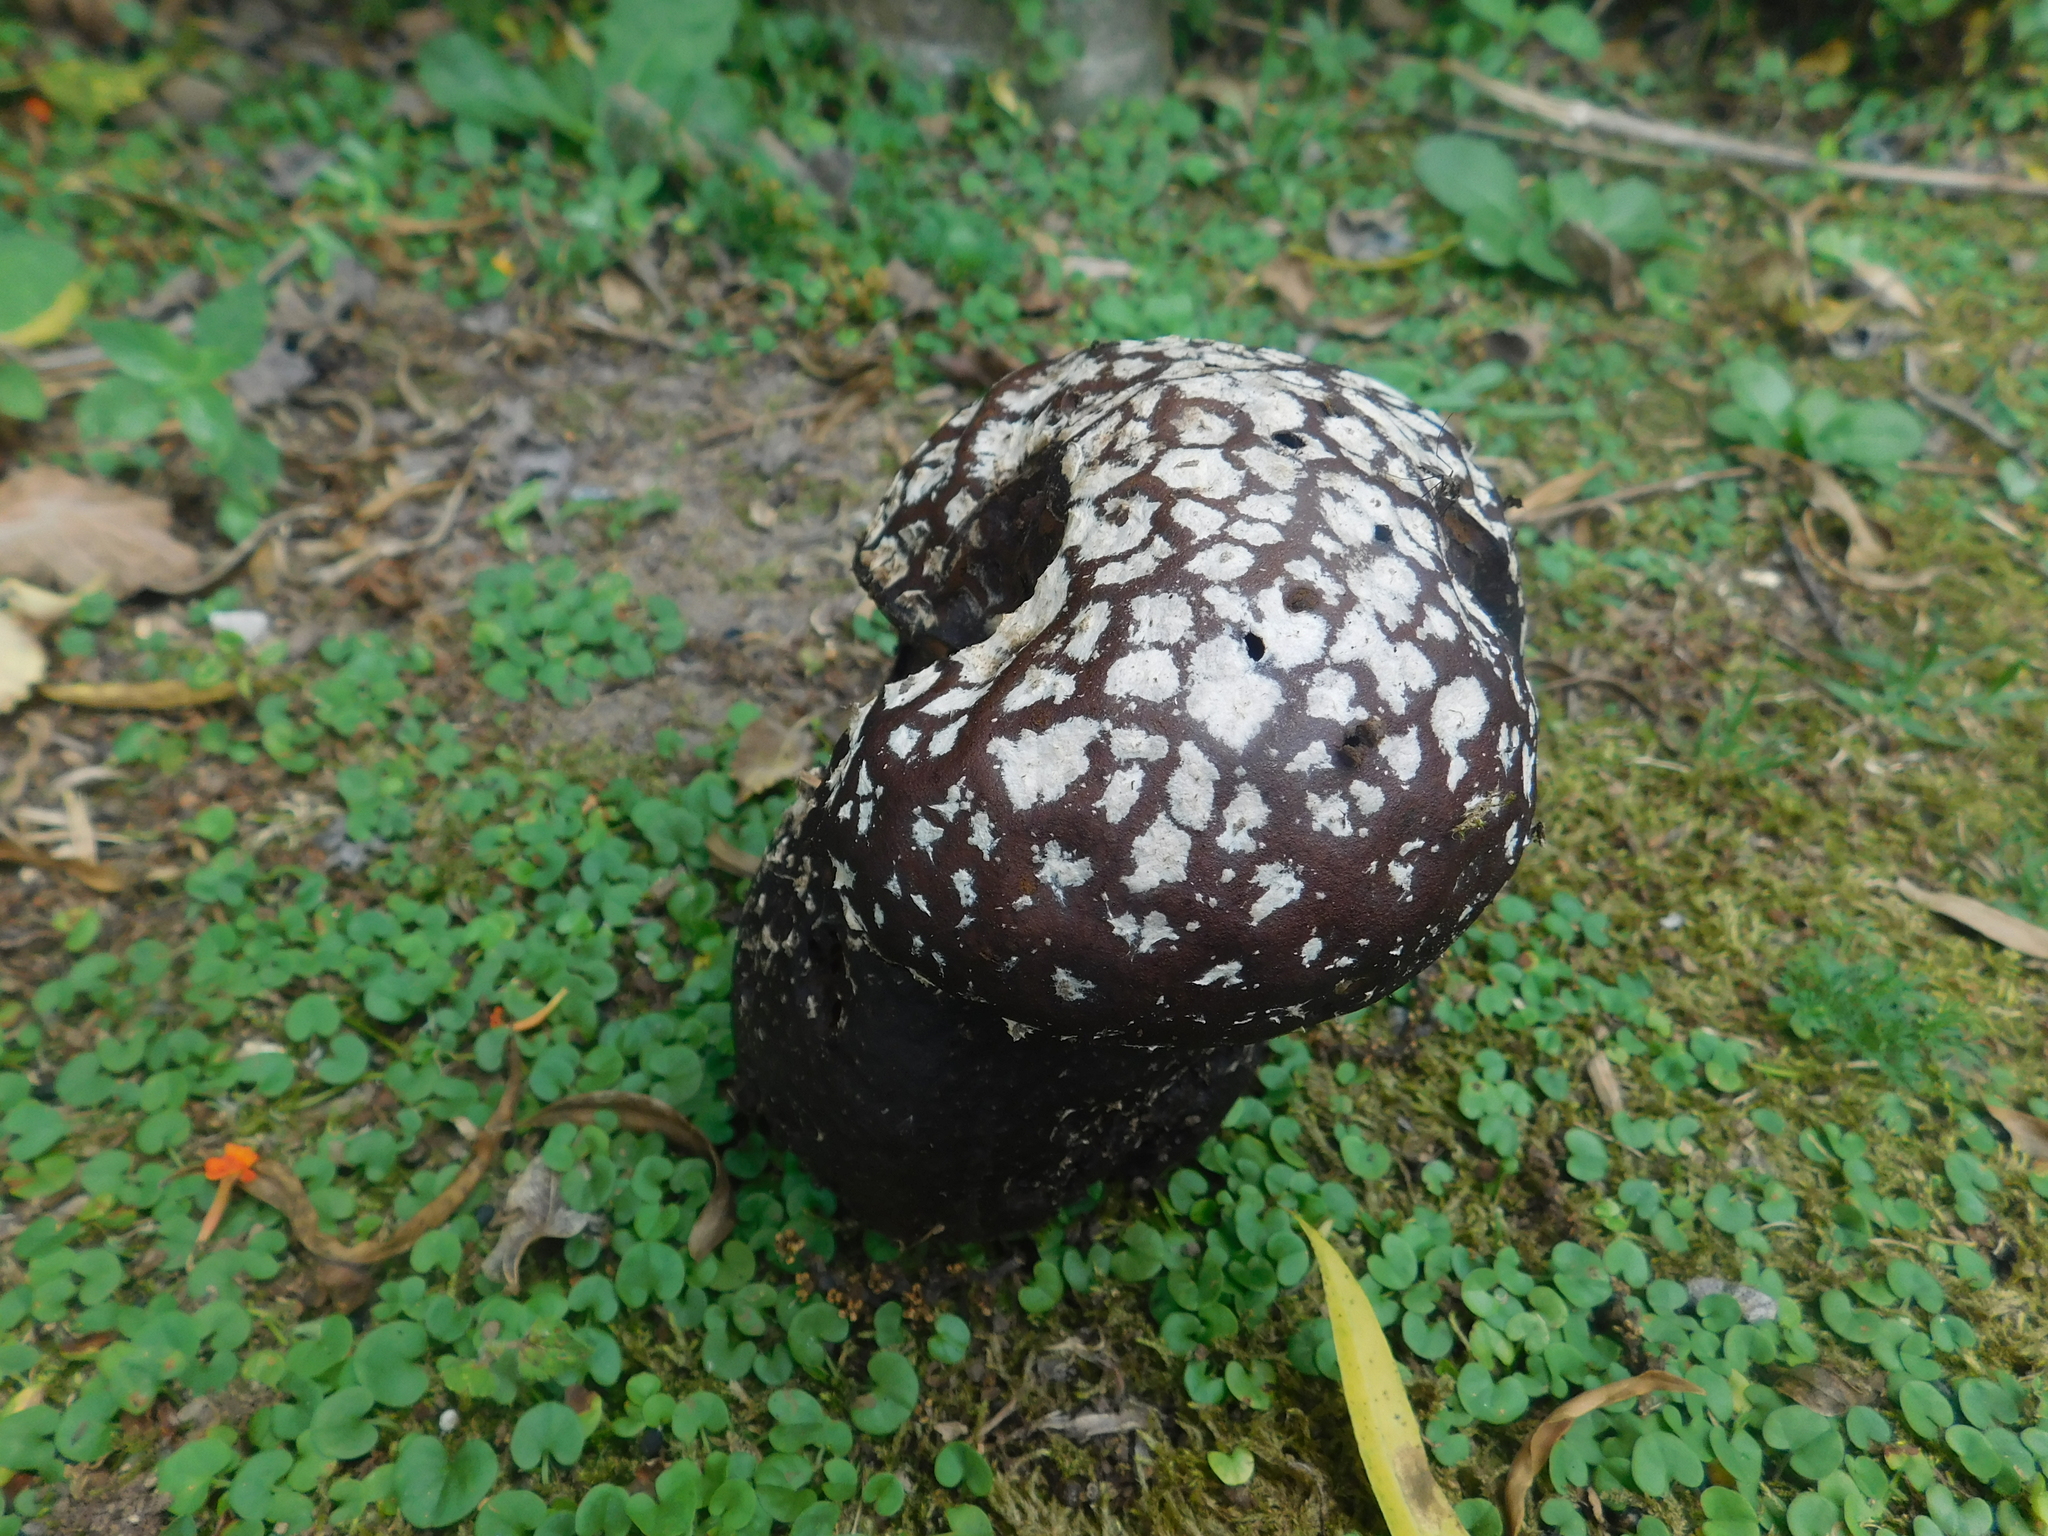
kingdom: Fungi
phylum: Basidiomycota
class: Agaricomycetes
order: Agaricales
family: Lycoperdaceae
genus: Calvatia
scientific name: Calvatia cyathiformis
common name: Purple-spored puffball
